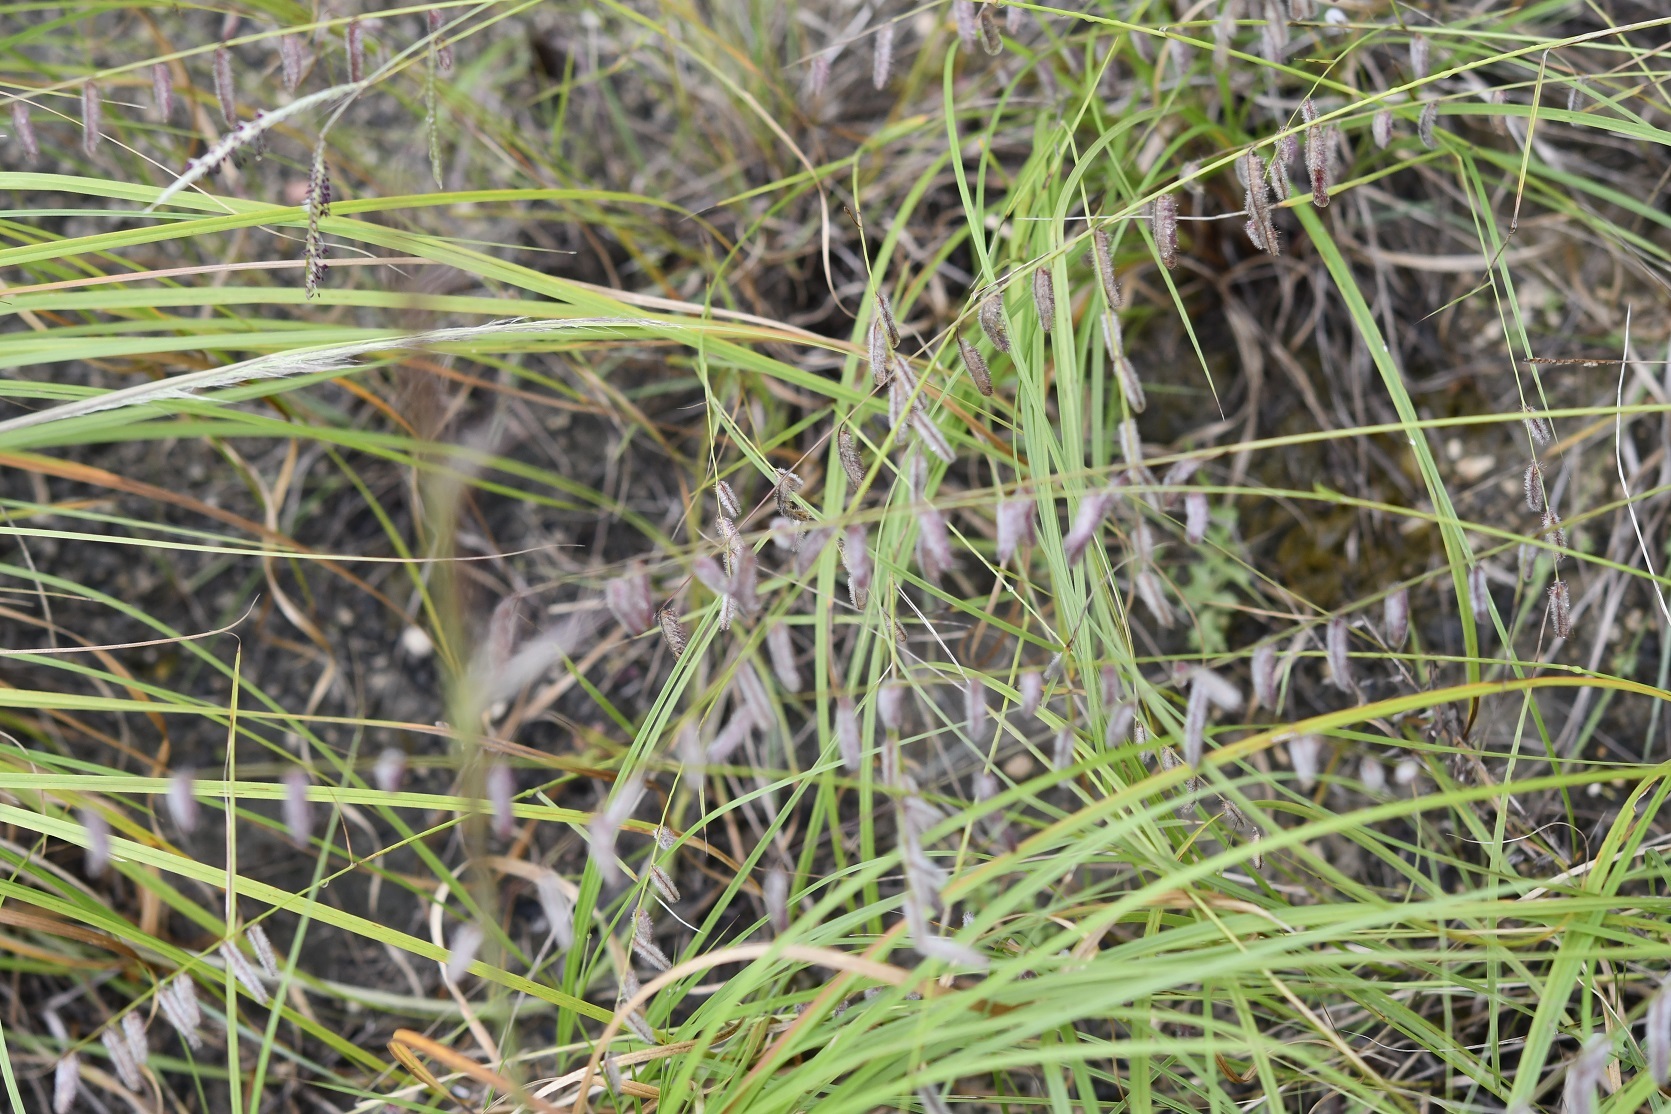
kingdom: Plantae
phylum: Tracheophyta
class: Liliopsida
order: Poales
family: Poaceae
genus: Bouteloua
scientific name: Bouteloua elata
